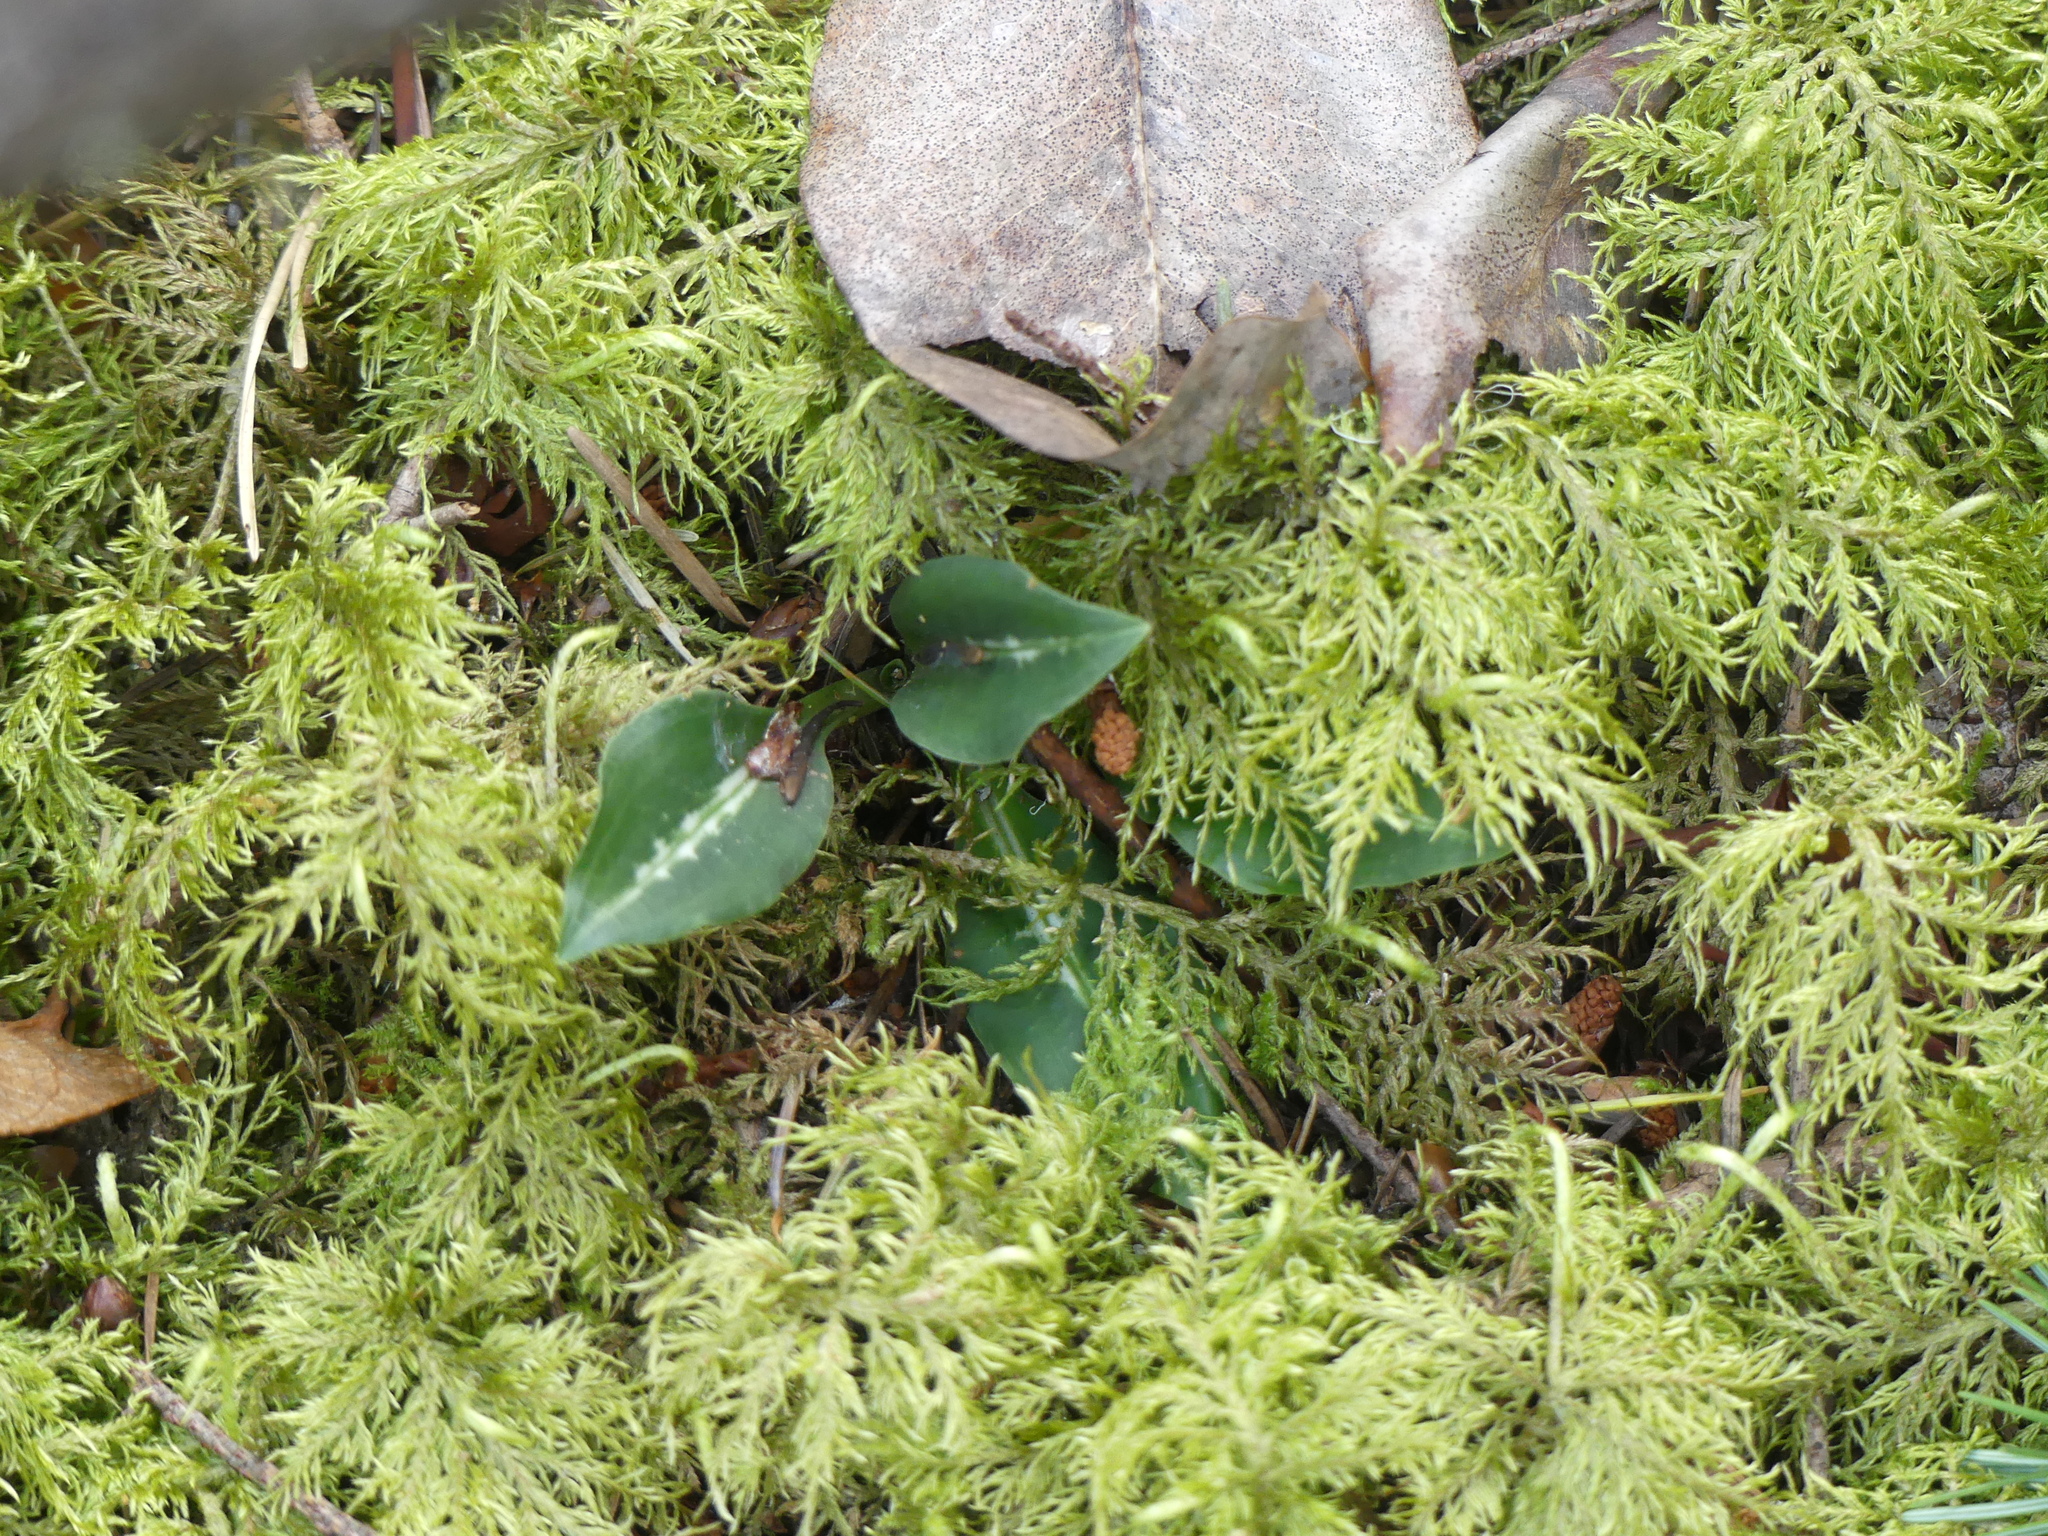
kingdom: Plantae
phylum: Tracheophyta
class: Liliopsida
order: Asparagales
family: Orchidaceae
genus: Goodyera
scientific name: Goodyera oblongifolia
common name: Giant rattlesnake-plantain
